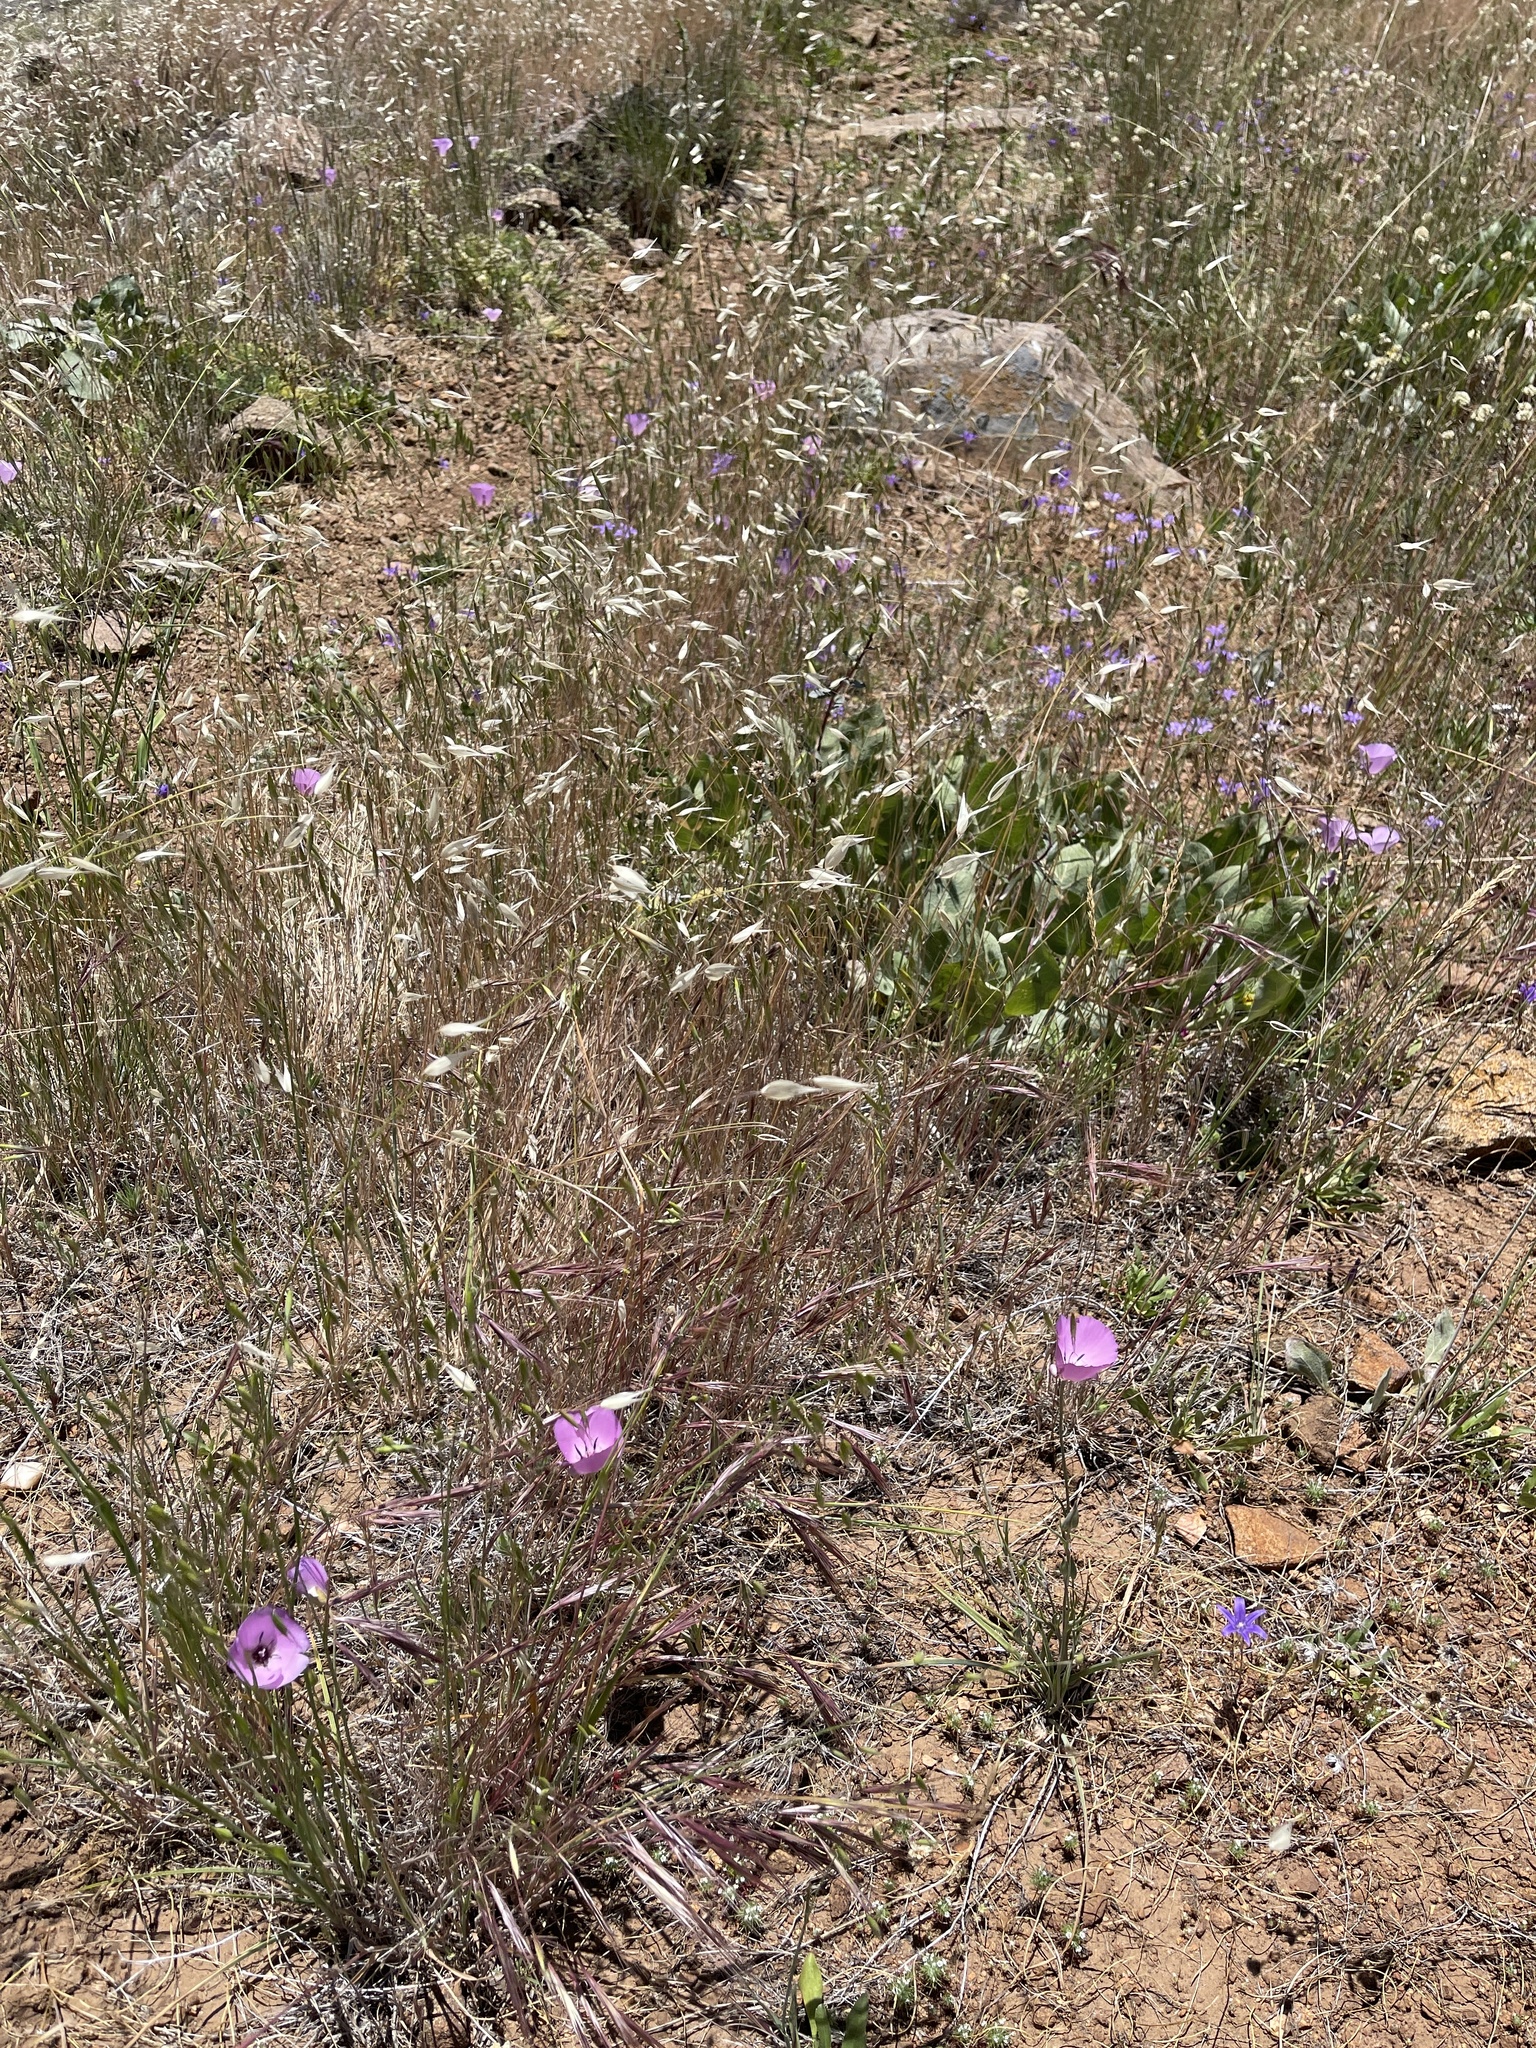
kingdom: Plantae
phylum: Tracheophyta
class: Liliopsida
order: Liliales
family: Liliaceae
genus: Calochortus
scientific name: Calochortus splendens
